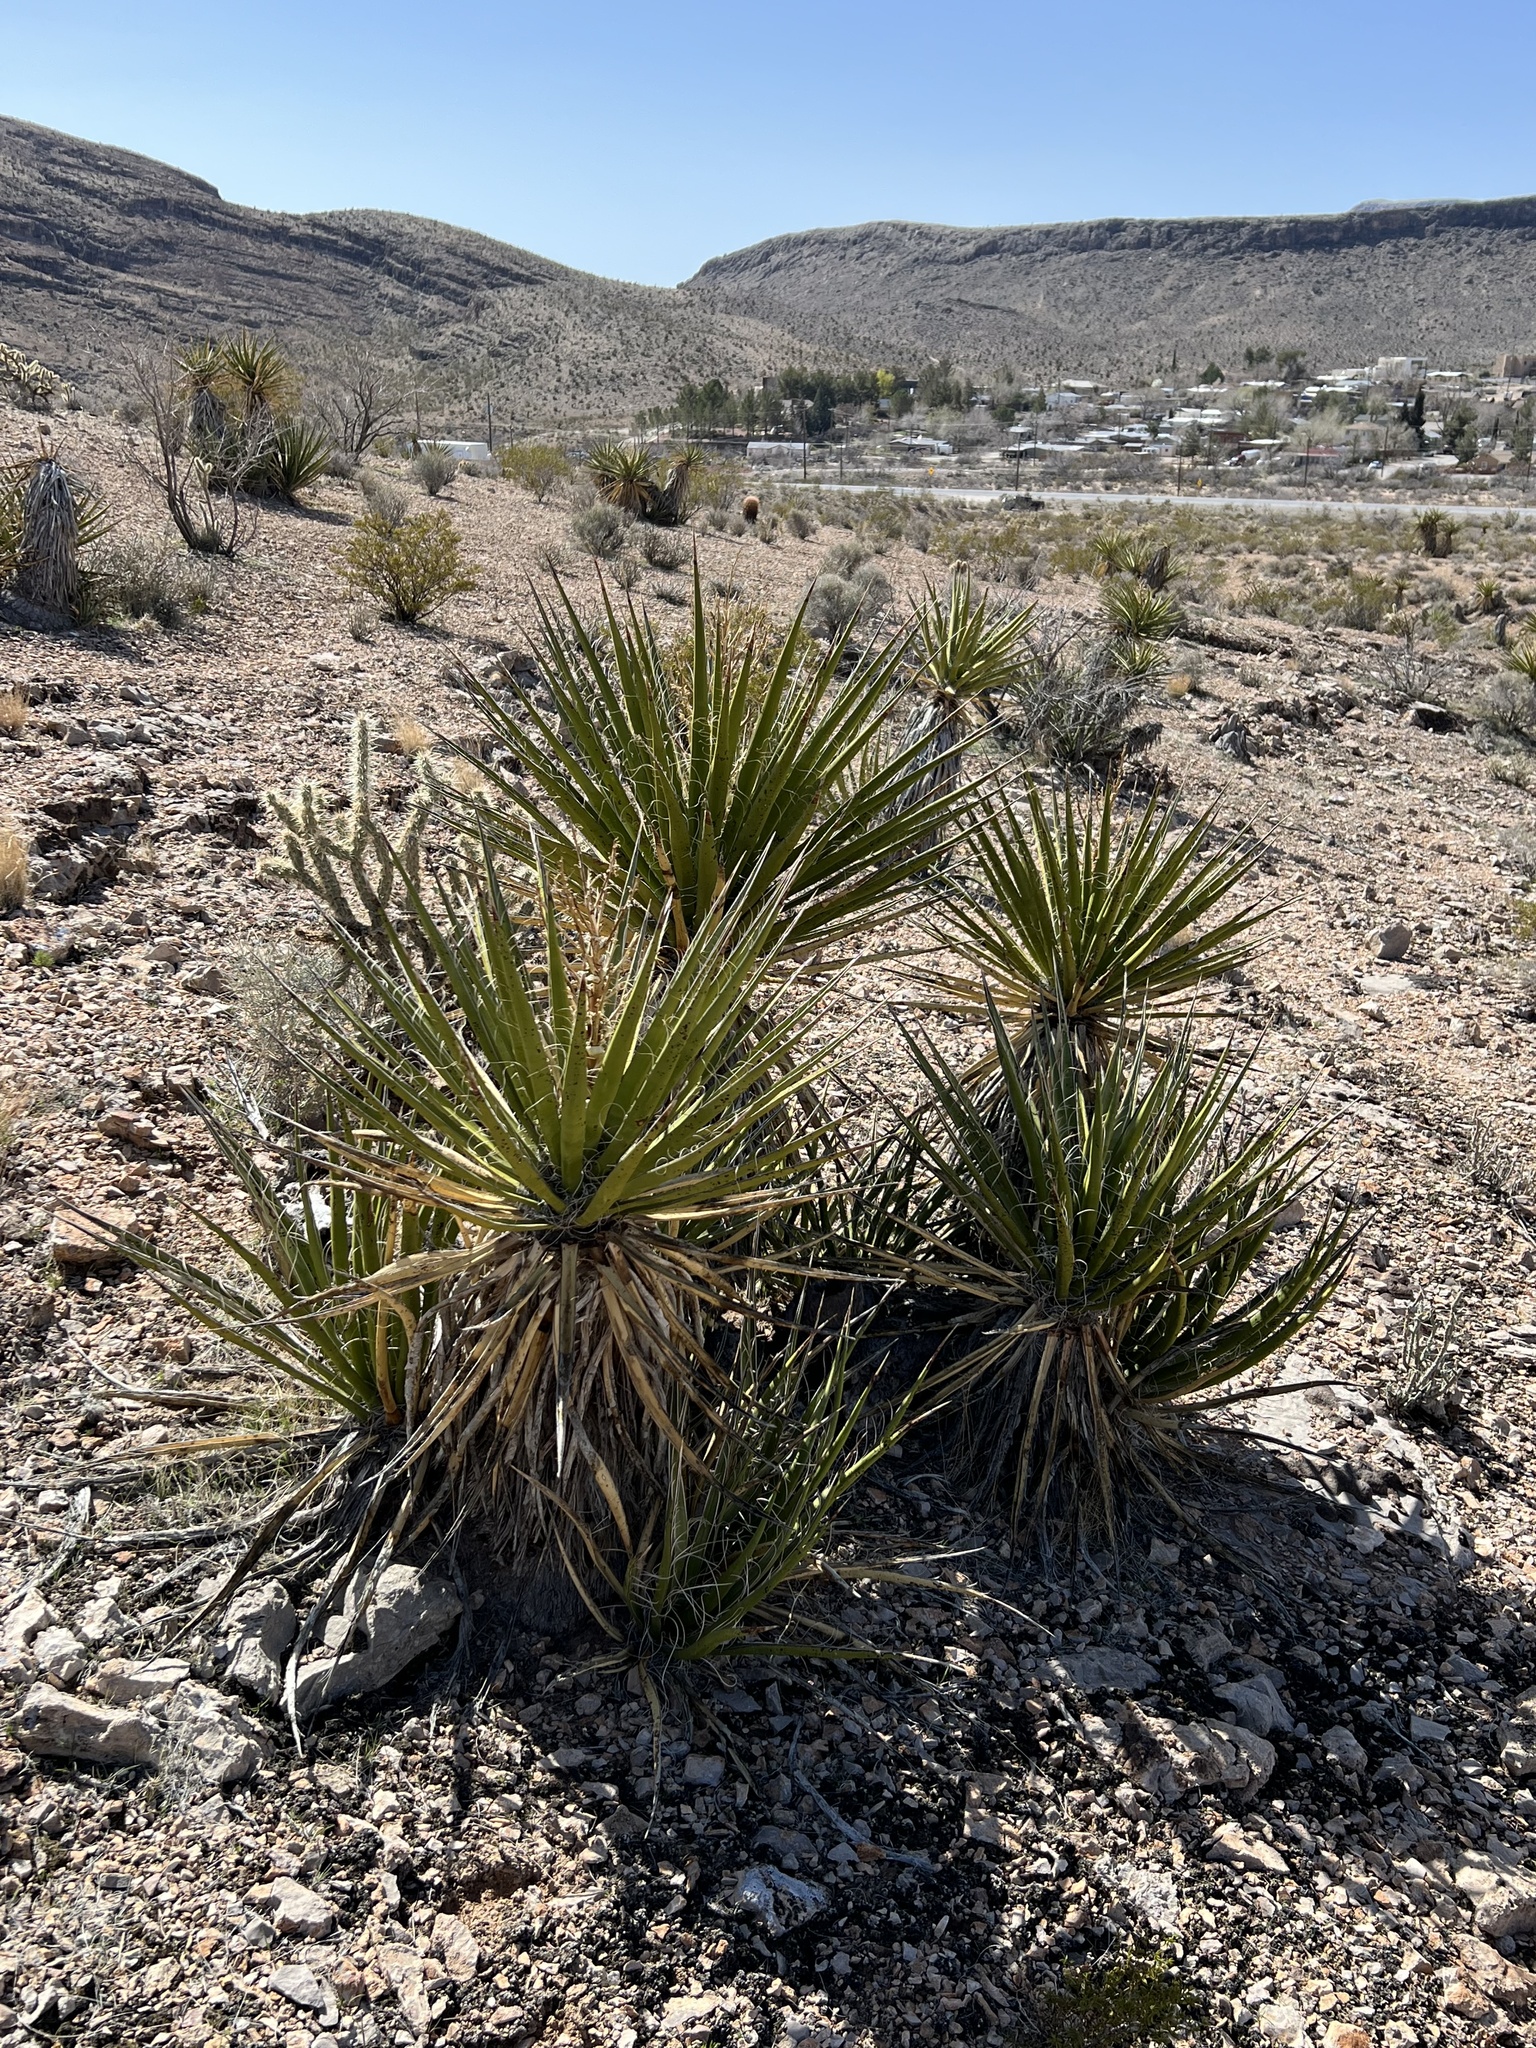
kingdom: Plantae
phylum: Tracheophyta
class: Liliopsida
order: Asparagales
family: Asparagaceae
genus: Yucca
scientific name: Yucca schidigera
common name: Mojave yucca
